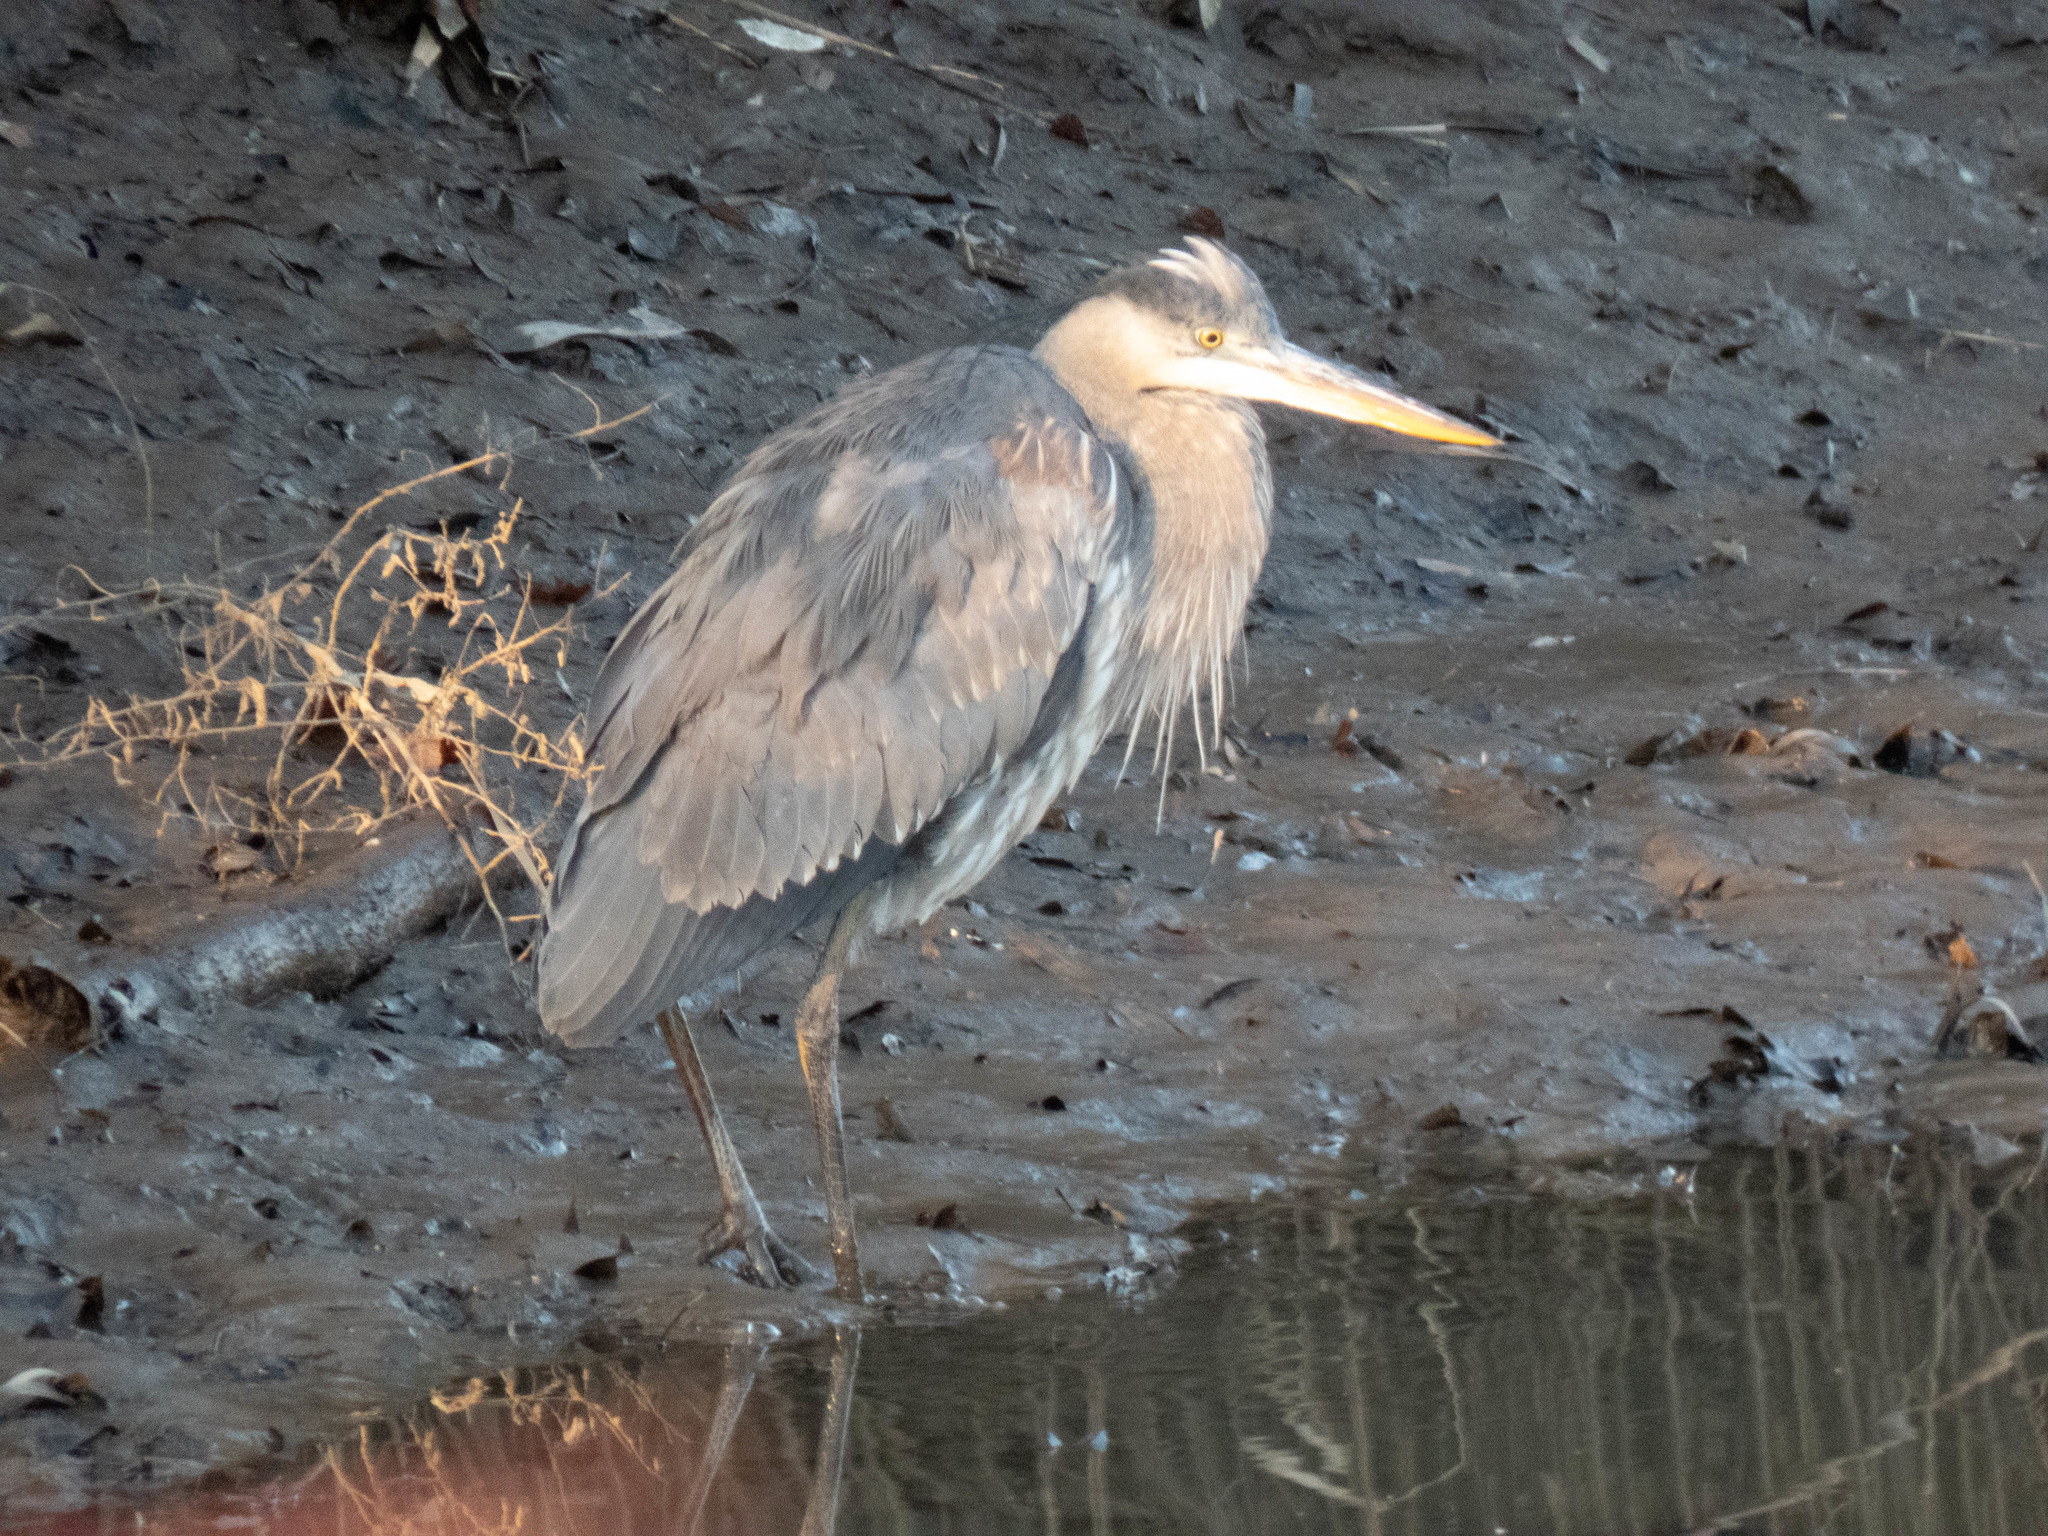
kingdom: Animalia
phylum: Chordata
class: Aves
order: Pelecaniformes
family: Ardeidae
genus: Ardea
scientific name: Ardea herodias
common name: Great blue heron
